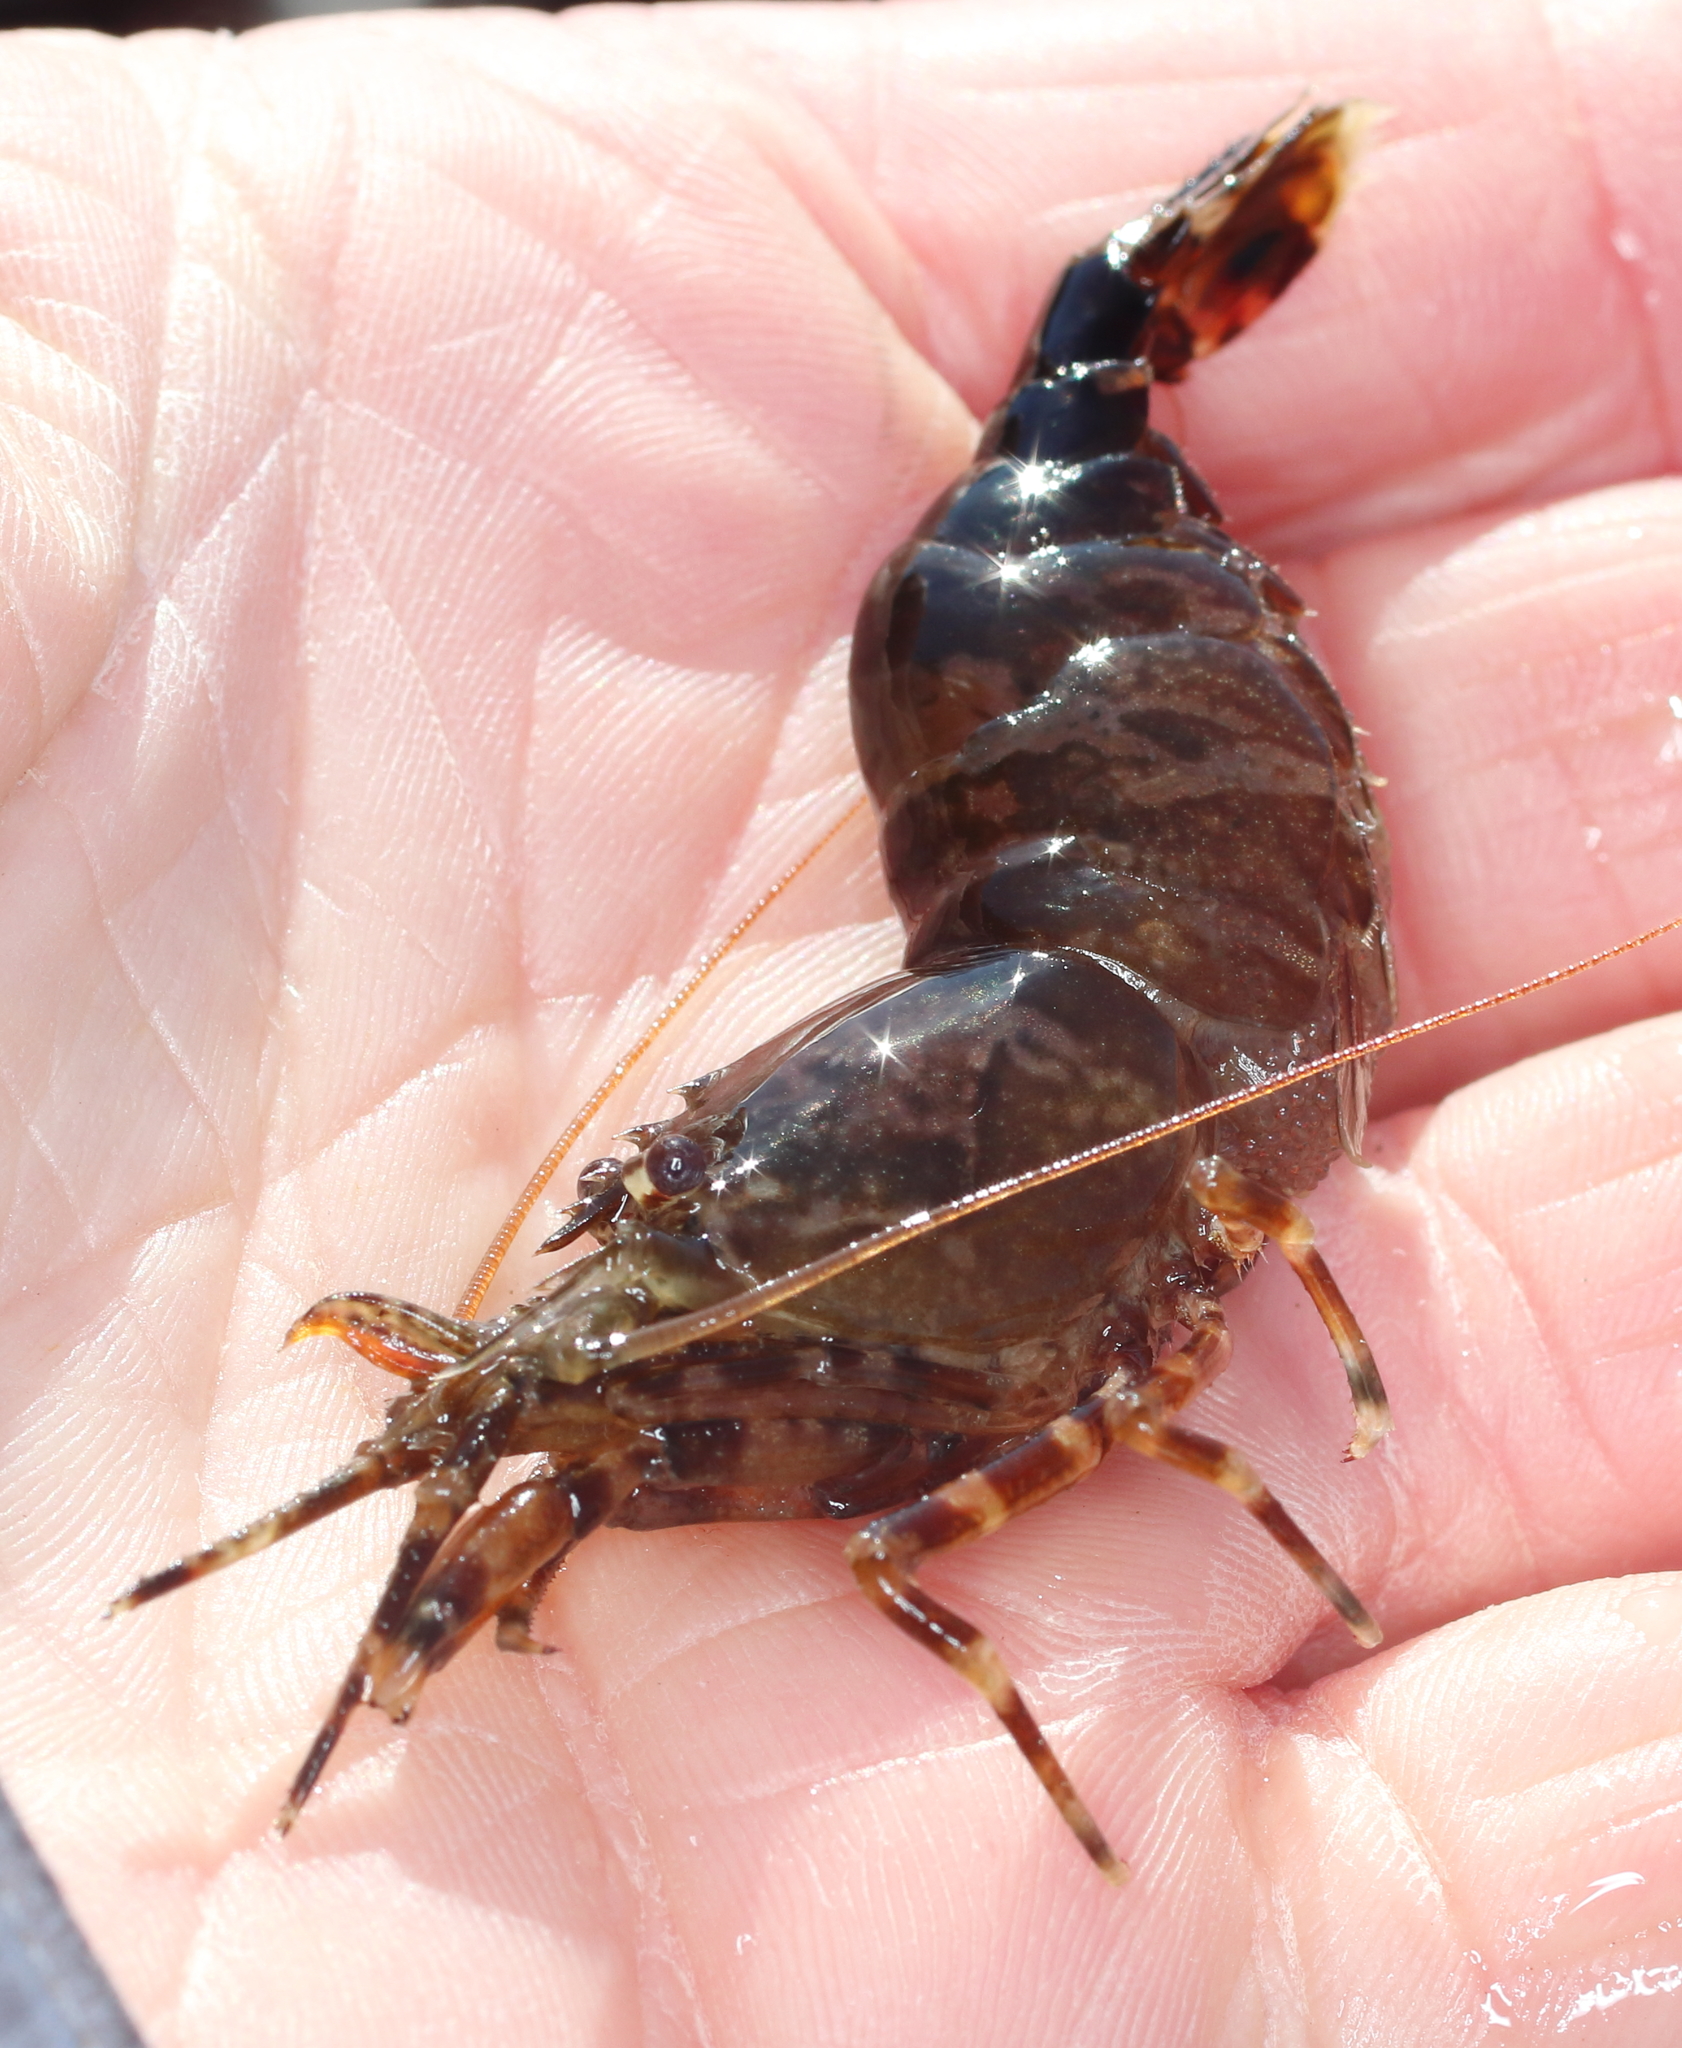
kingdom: Animalia
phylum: Arthropoda
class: Malacostraca
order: Decapoda
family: Thoridae
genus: Heptacarpus
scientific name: Heptacarpus brevirostris
